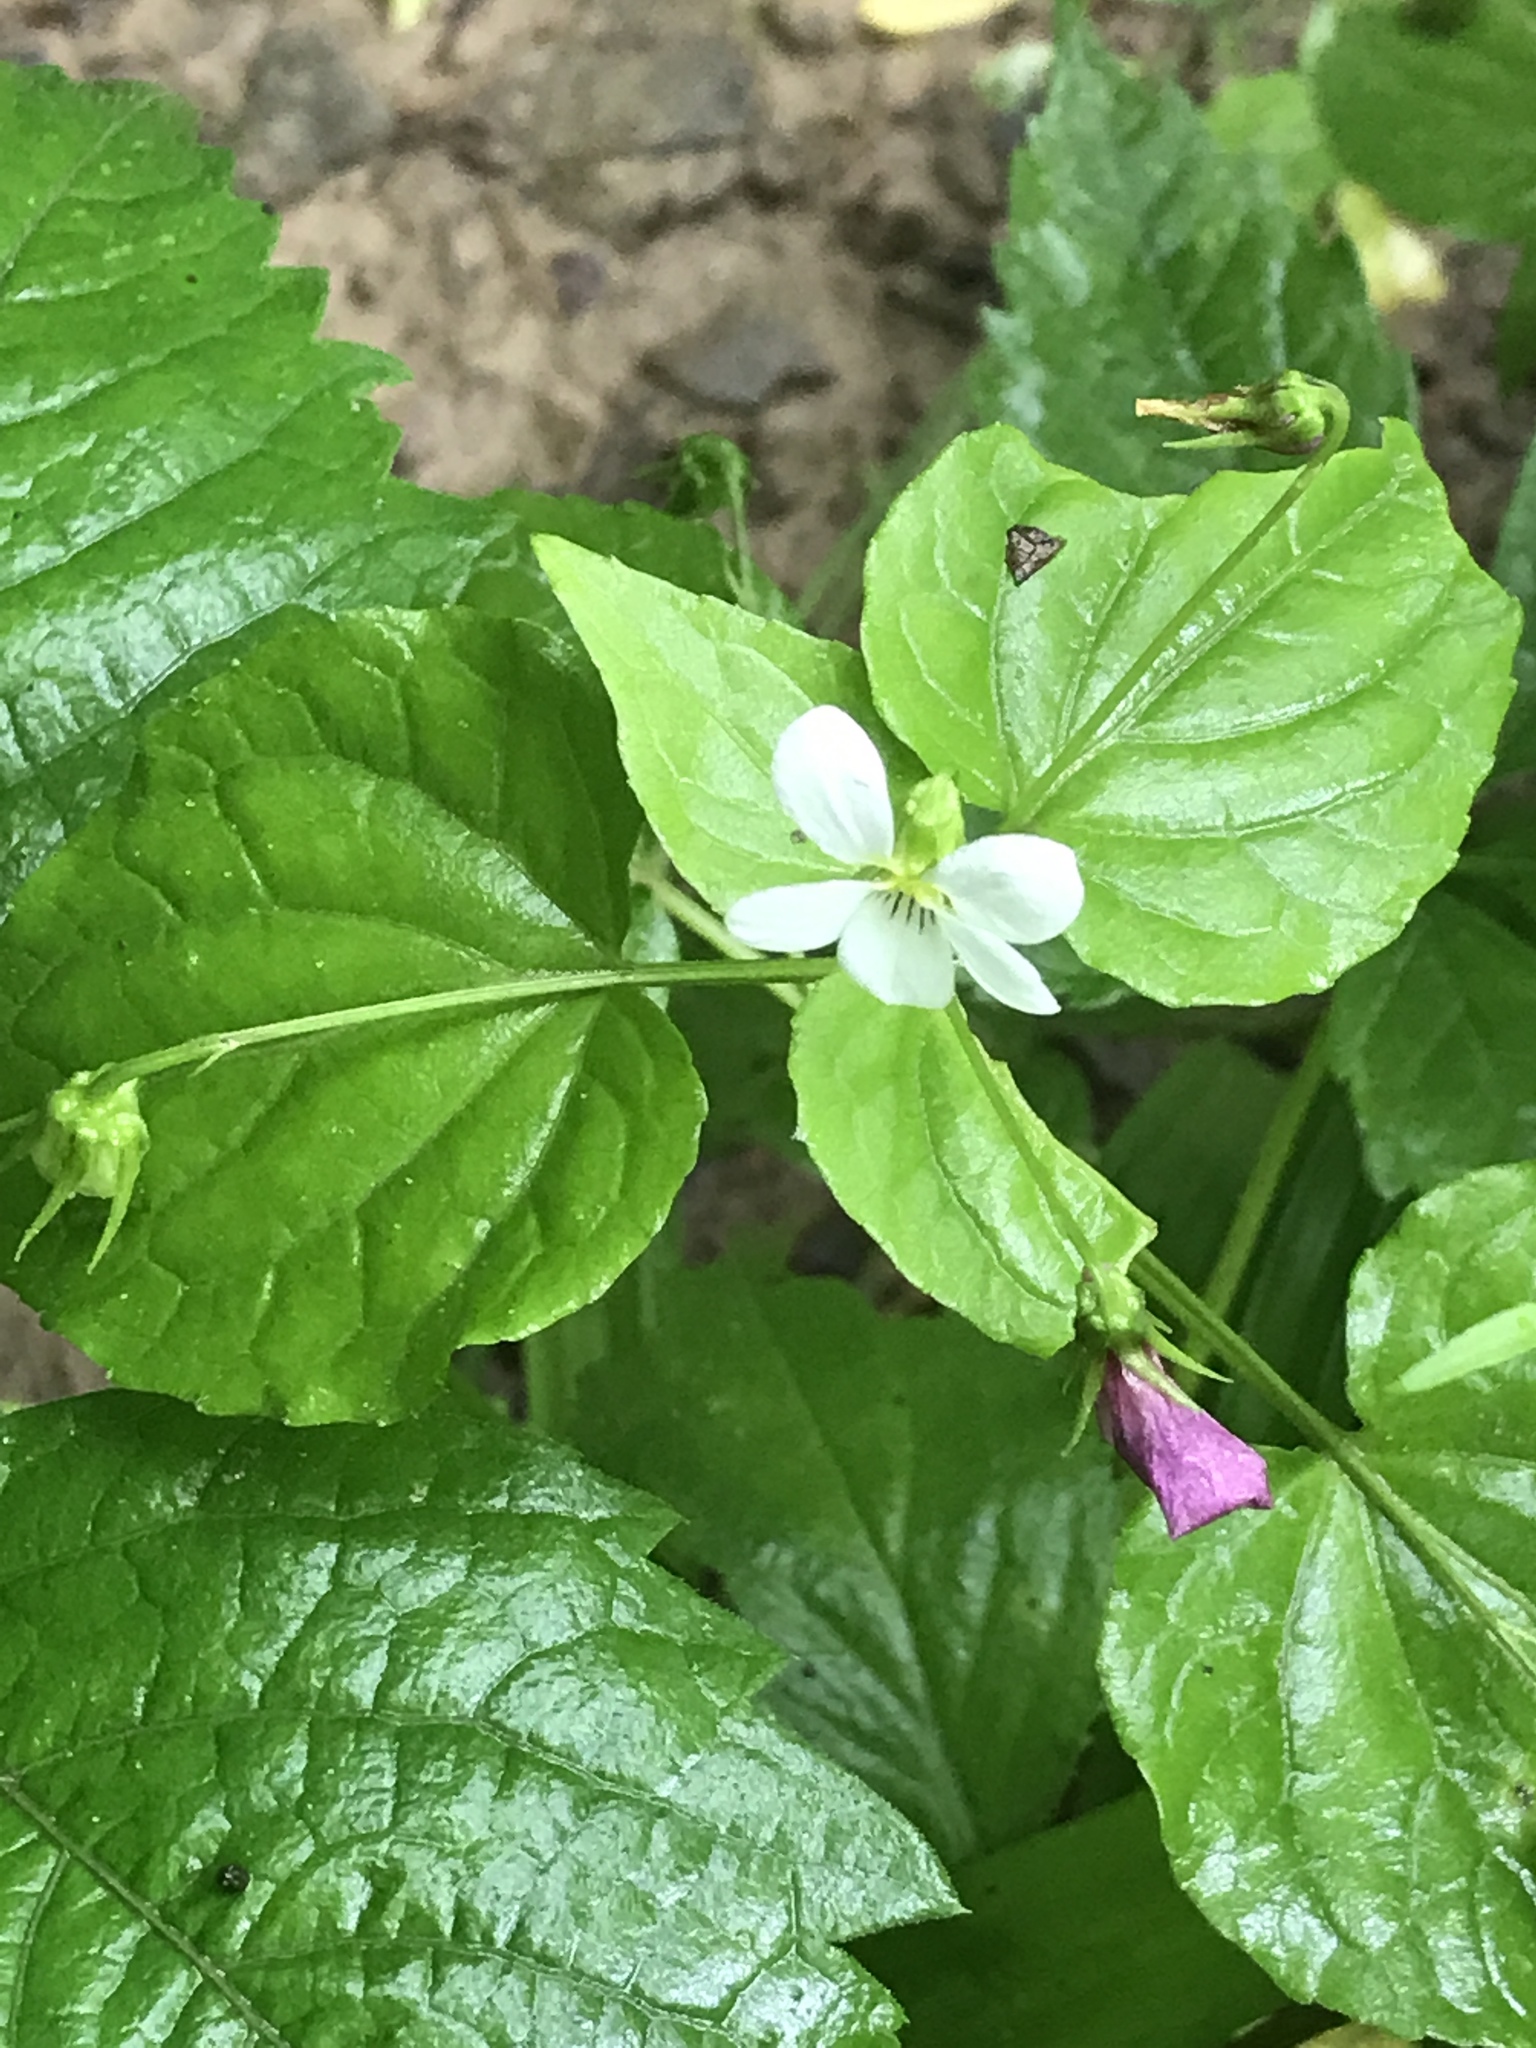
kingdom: Plantae
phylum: Tracheophyta
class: Magnoliopsida
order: Malpighiales
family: Violaceae
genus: Viola
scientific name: Viola canadensis
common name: Canada violet
